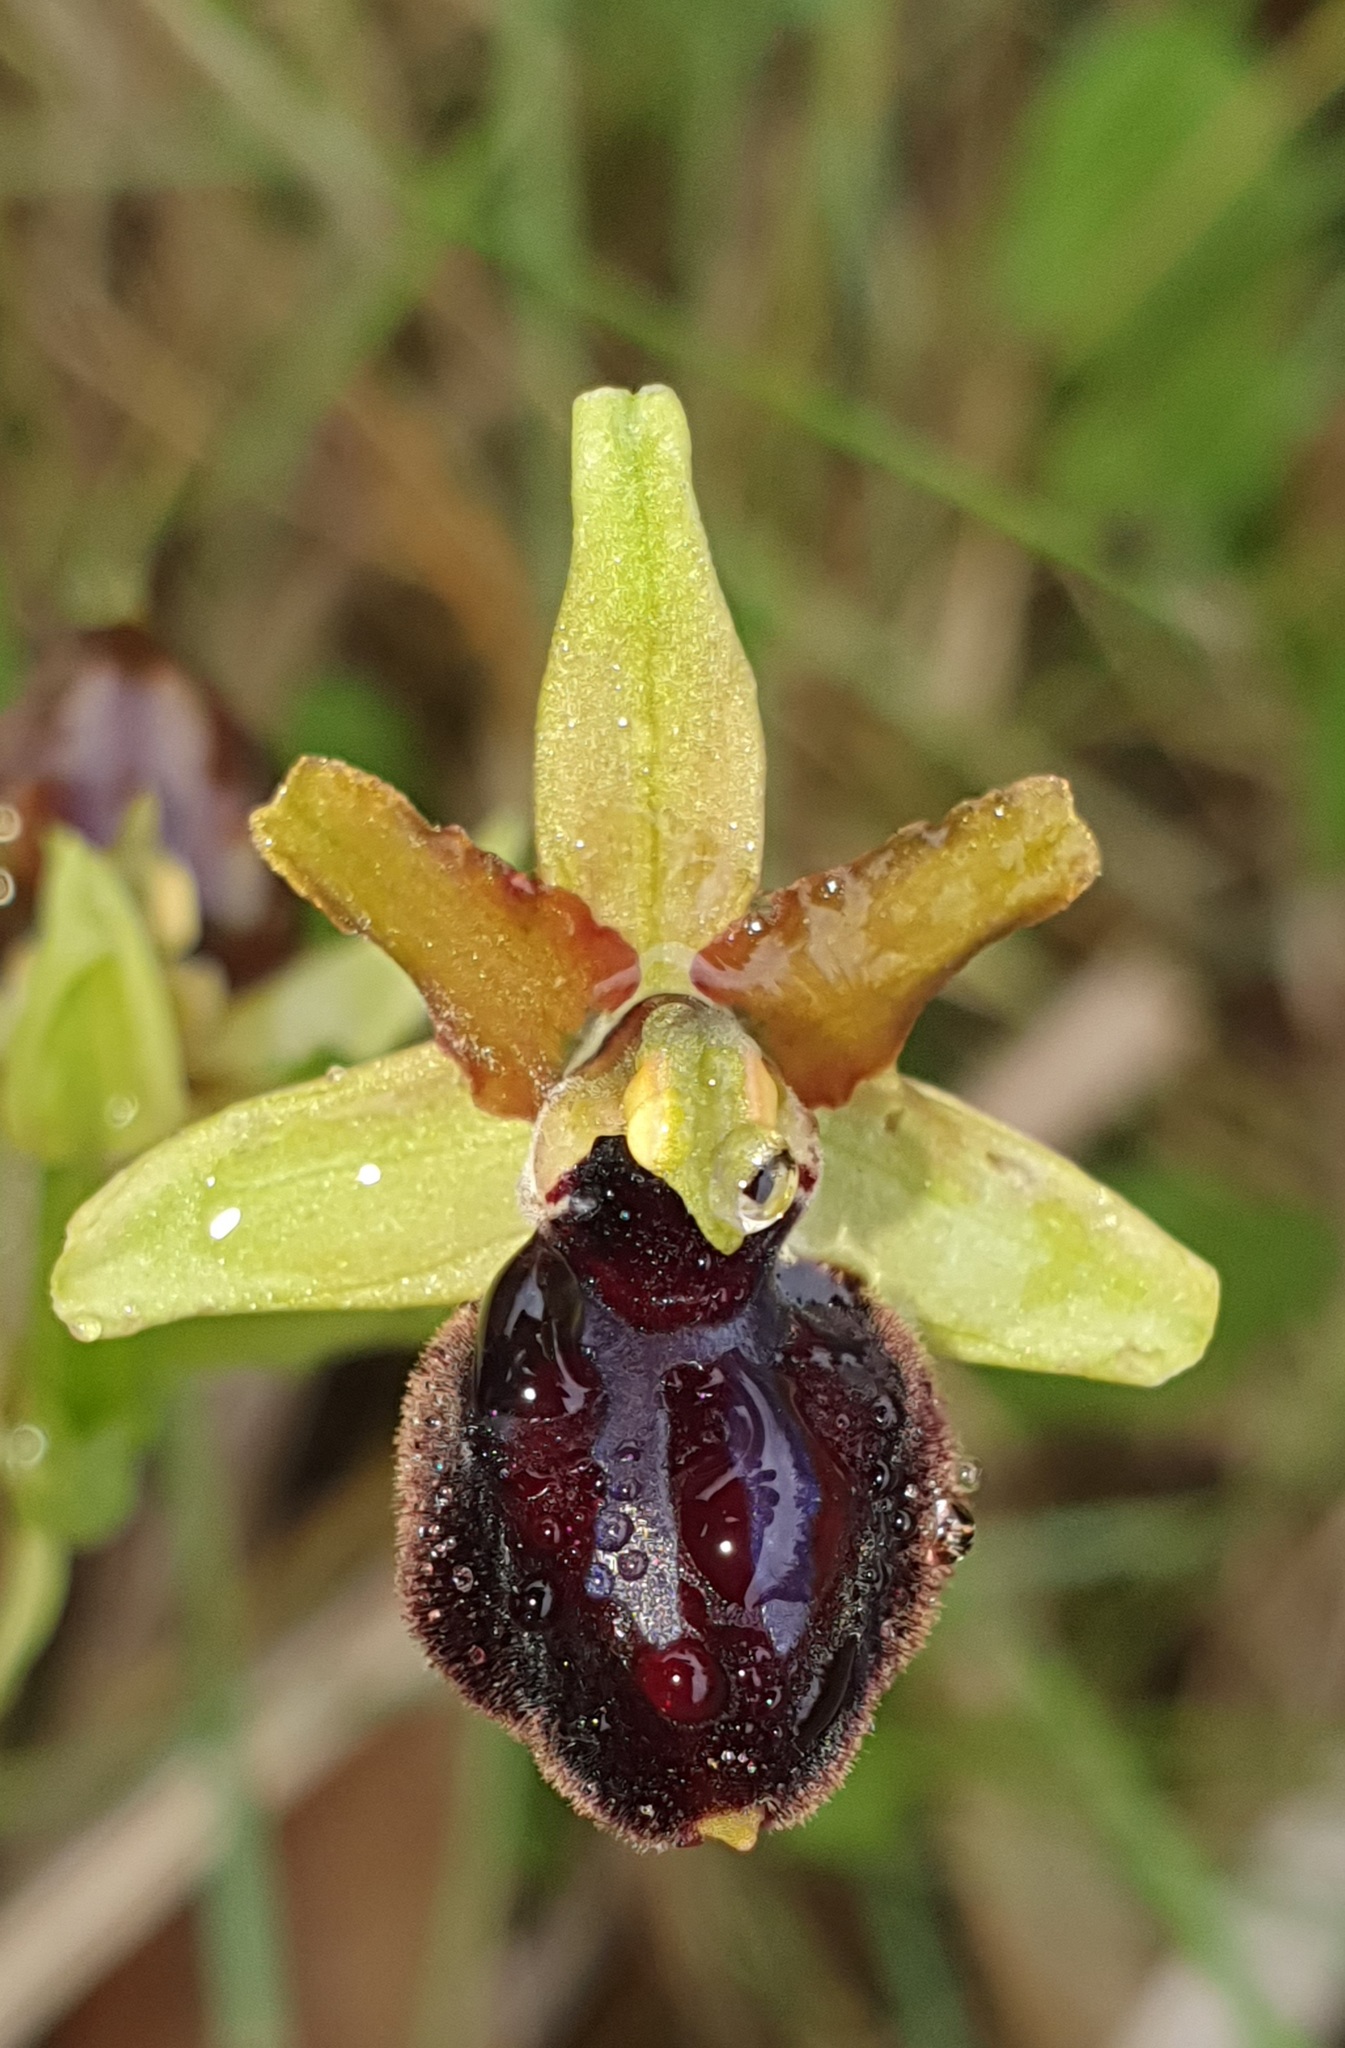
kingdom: Plantae
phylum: Tracheophyta
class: Liliopsida
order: Asparagales
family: Orchidaceae
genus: Ophrys
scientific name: Ophrys sphegodes
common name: Early spider-orchid
